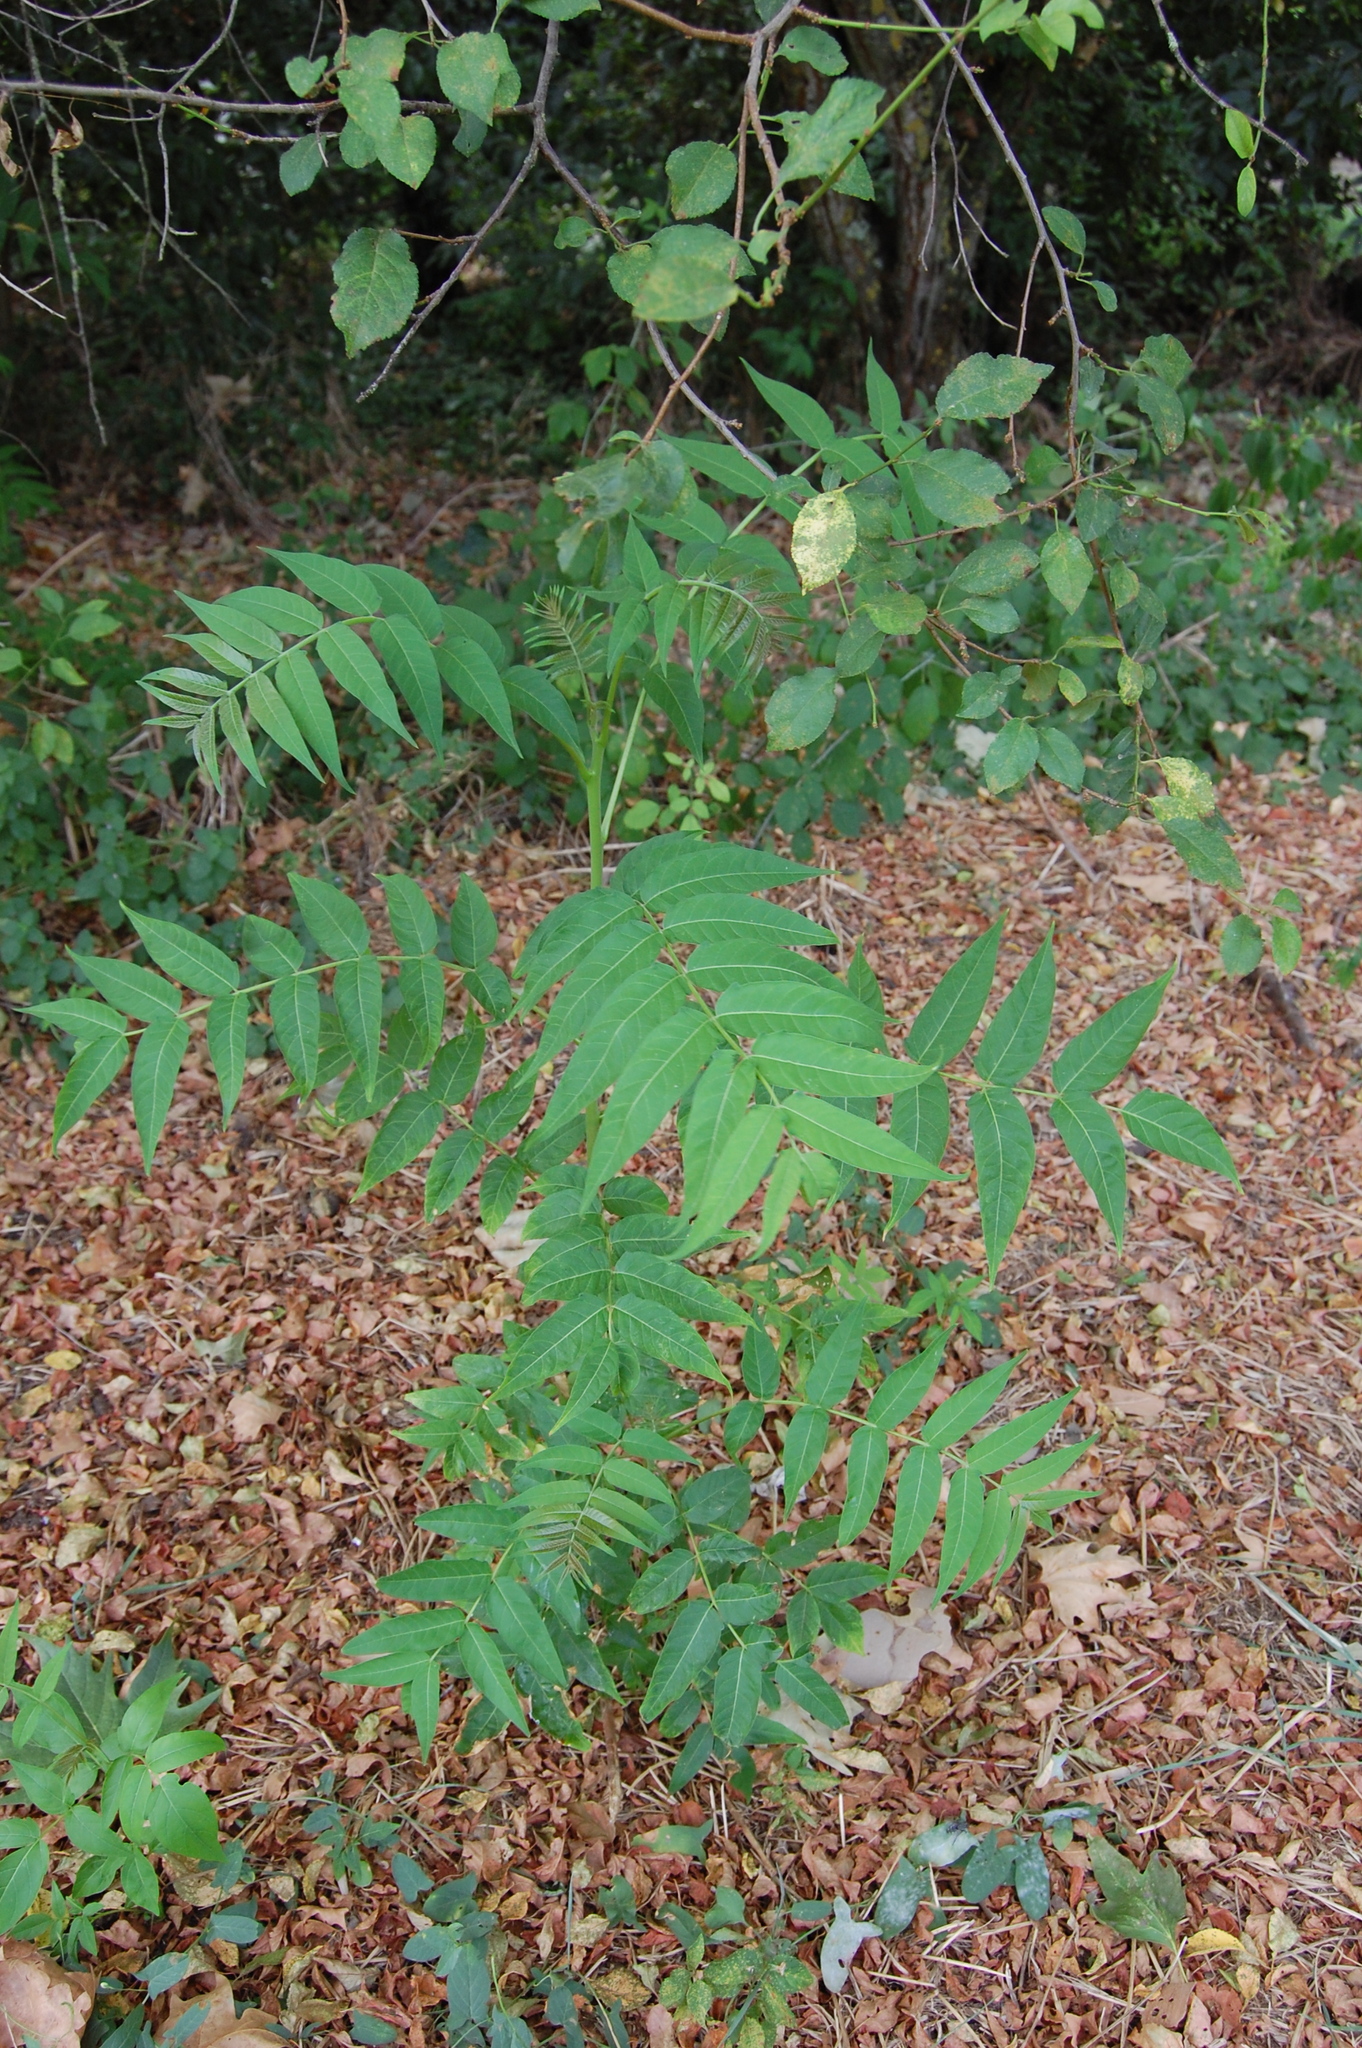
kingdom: Plantae
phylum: Tracheophyta
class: Magnoliopsida
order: Sapindales
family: Simaroubaceae
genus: Ailanthus
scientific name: Ailanthus altissima
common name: Tree-of-heaven
